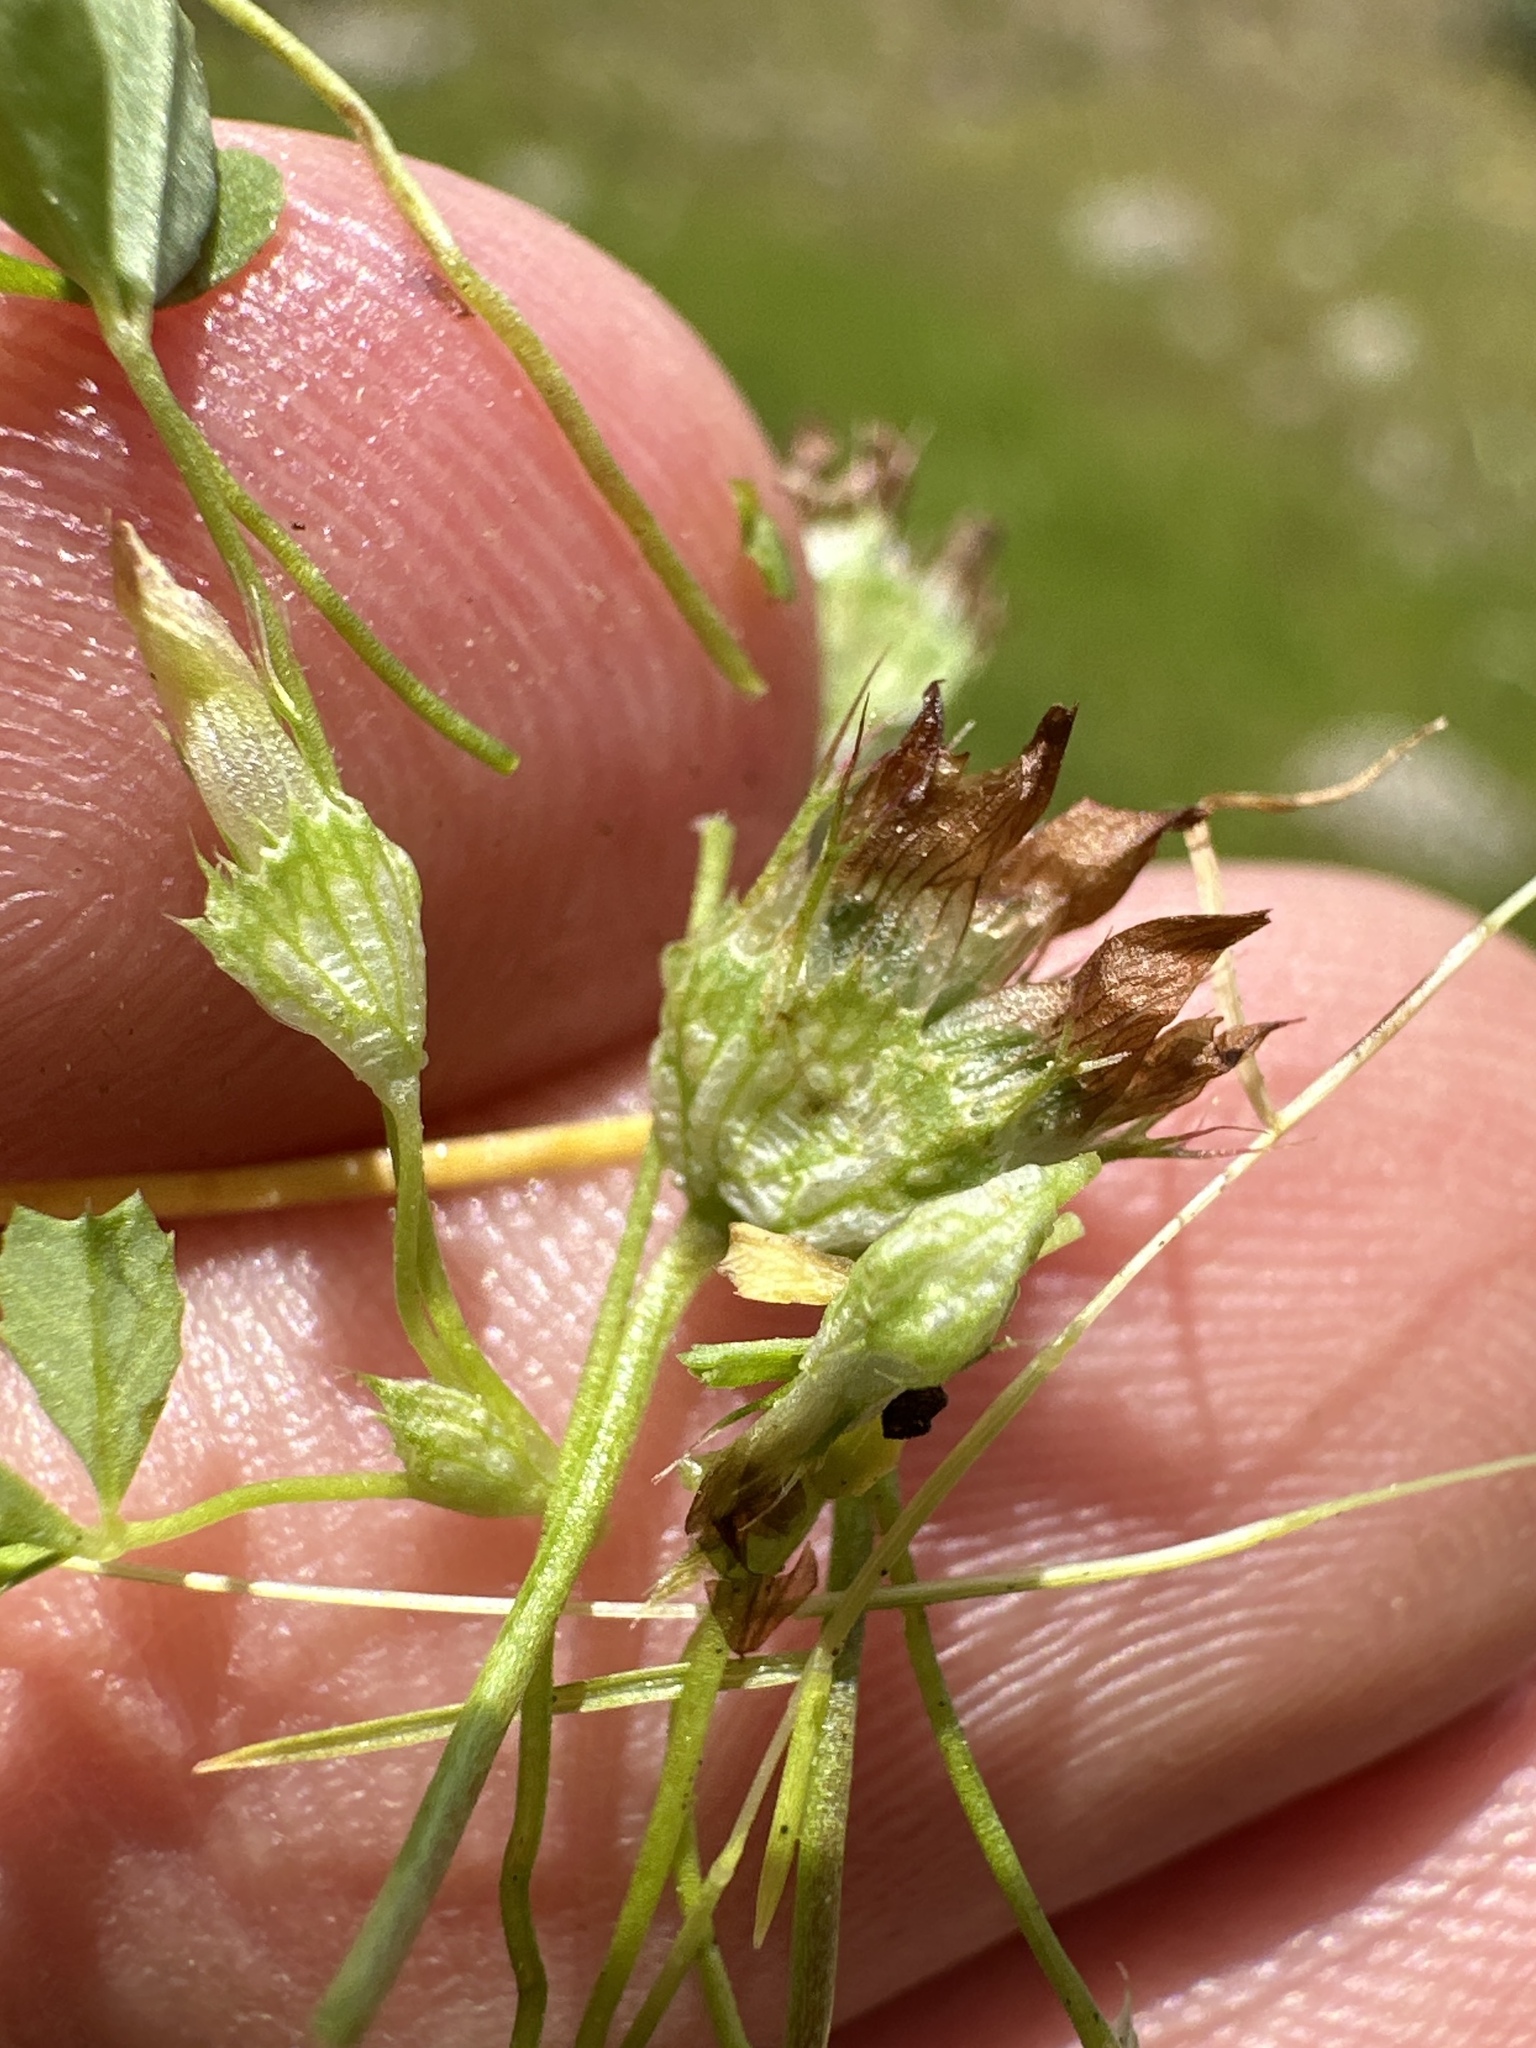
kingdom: Plantae
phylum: Tracheophyta
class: Magnoliopsida
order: Fabales
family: Fabaceae
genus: Trifolium
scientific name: Trifolium cyathiferum
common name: Bowl clover
